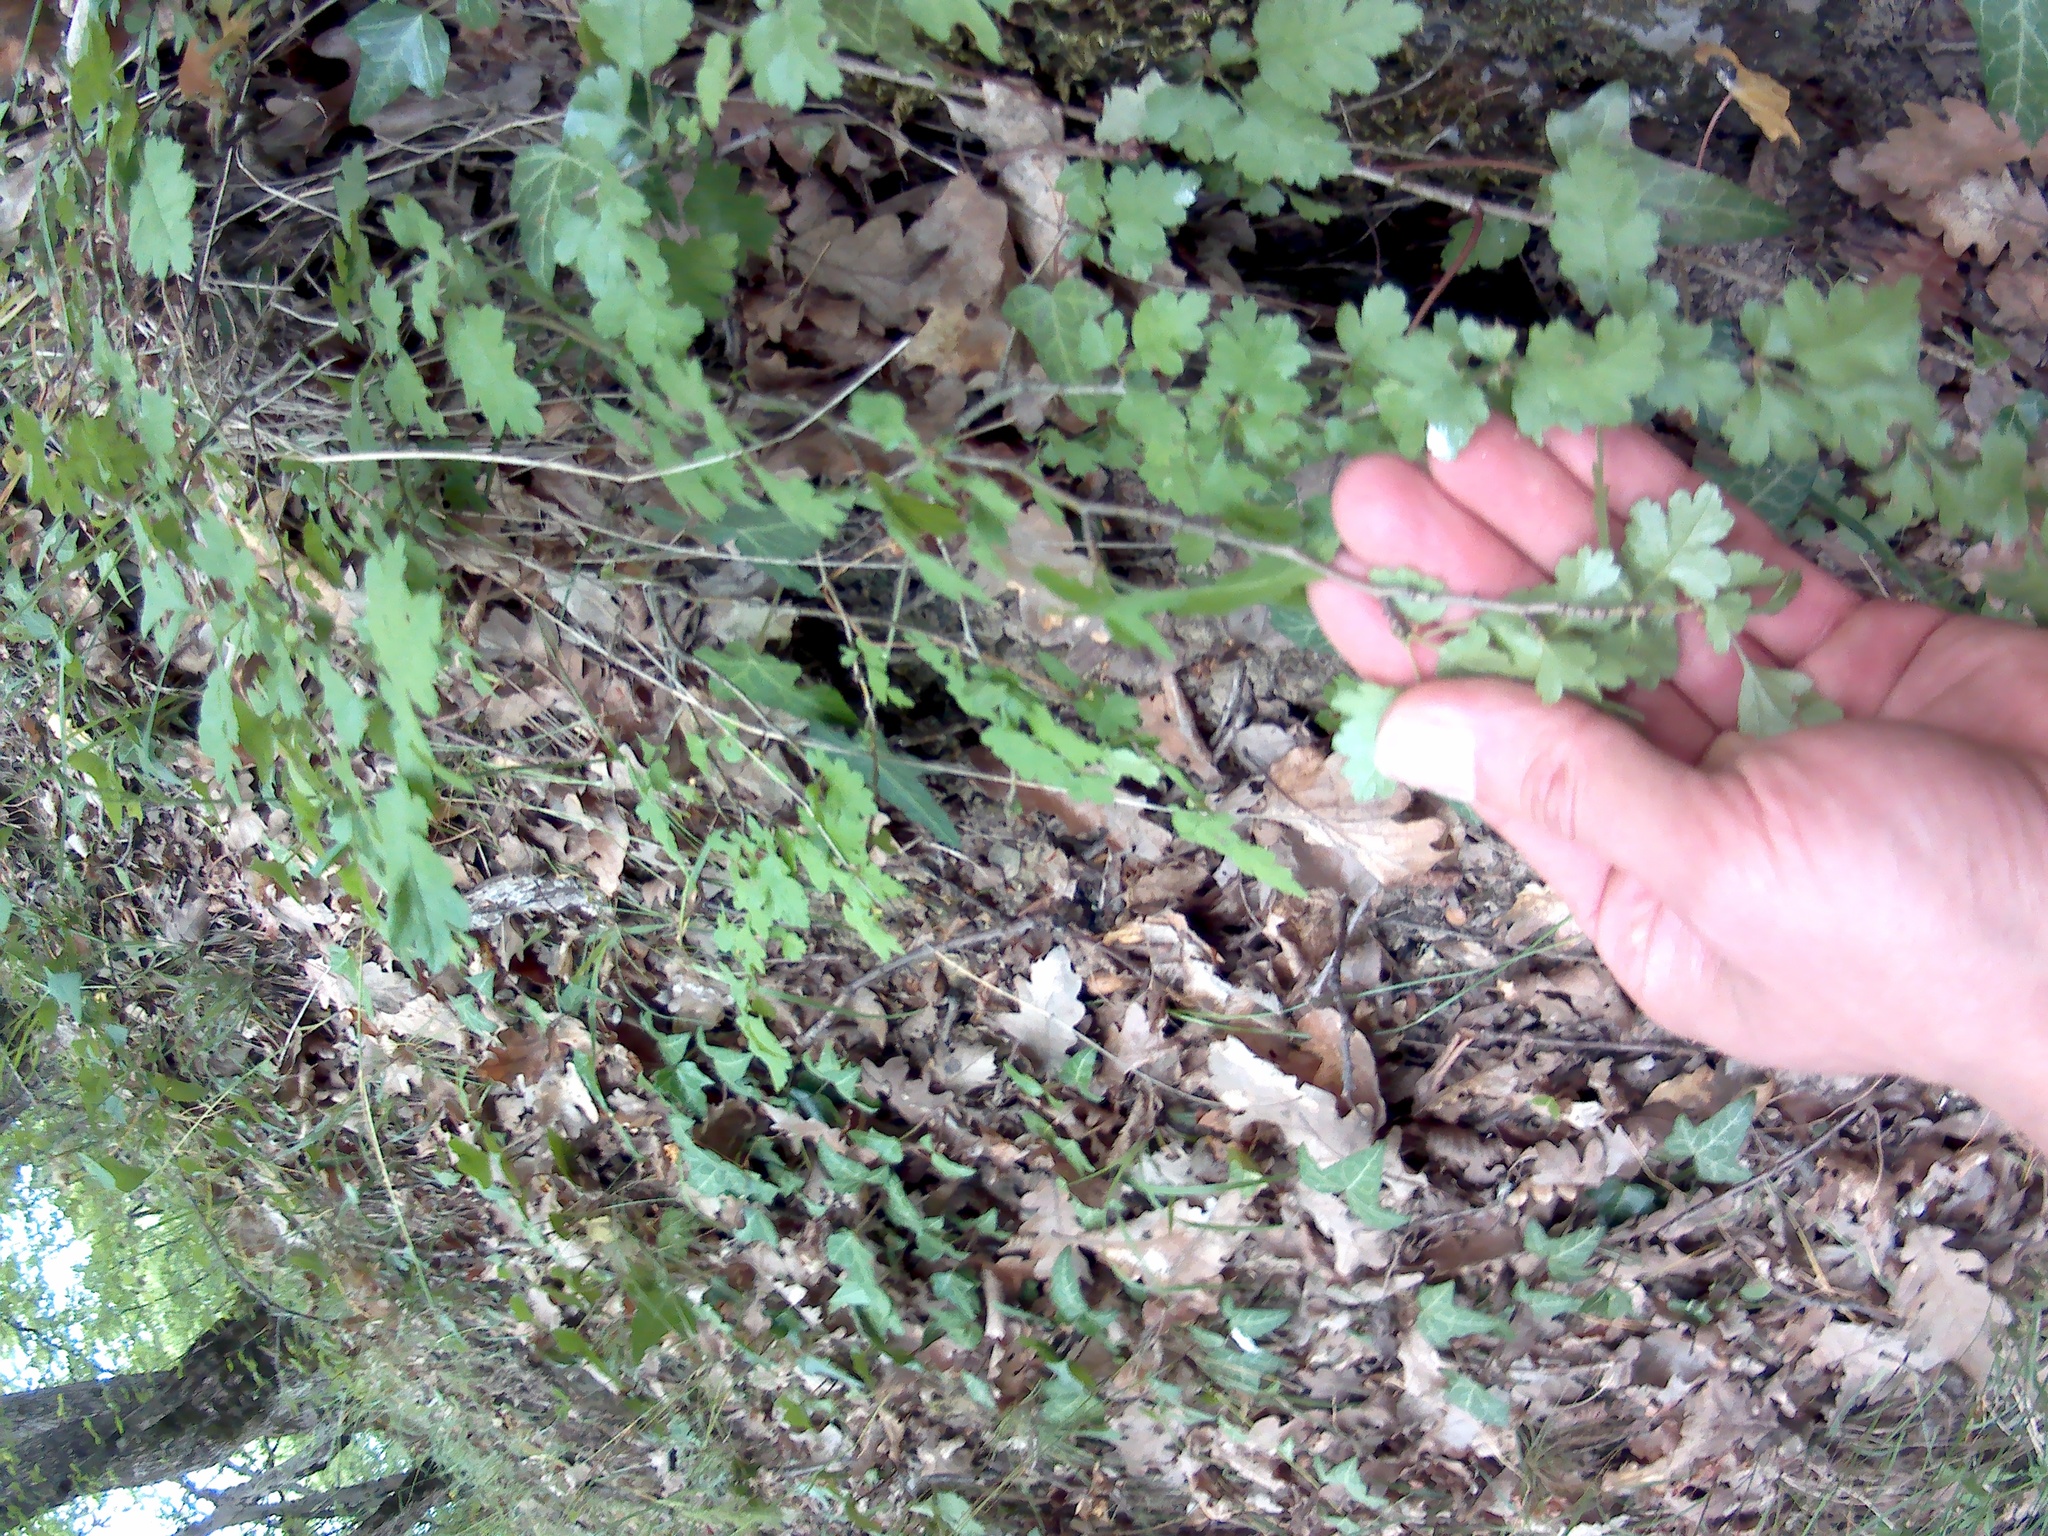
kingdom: Plantae
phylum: Tracheophyta
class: Magnoliopsida
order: Rosales
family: Rosaceae
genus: Crataegus
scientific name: Crataegus microphylla
